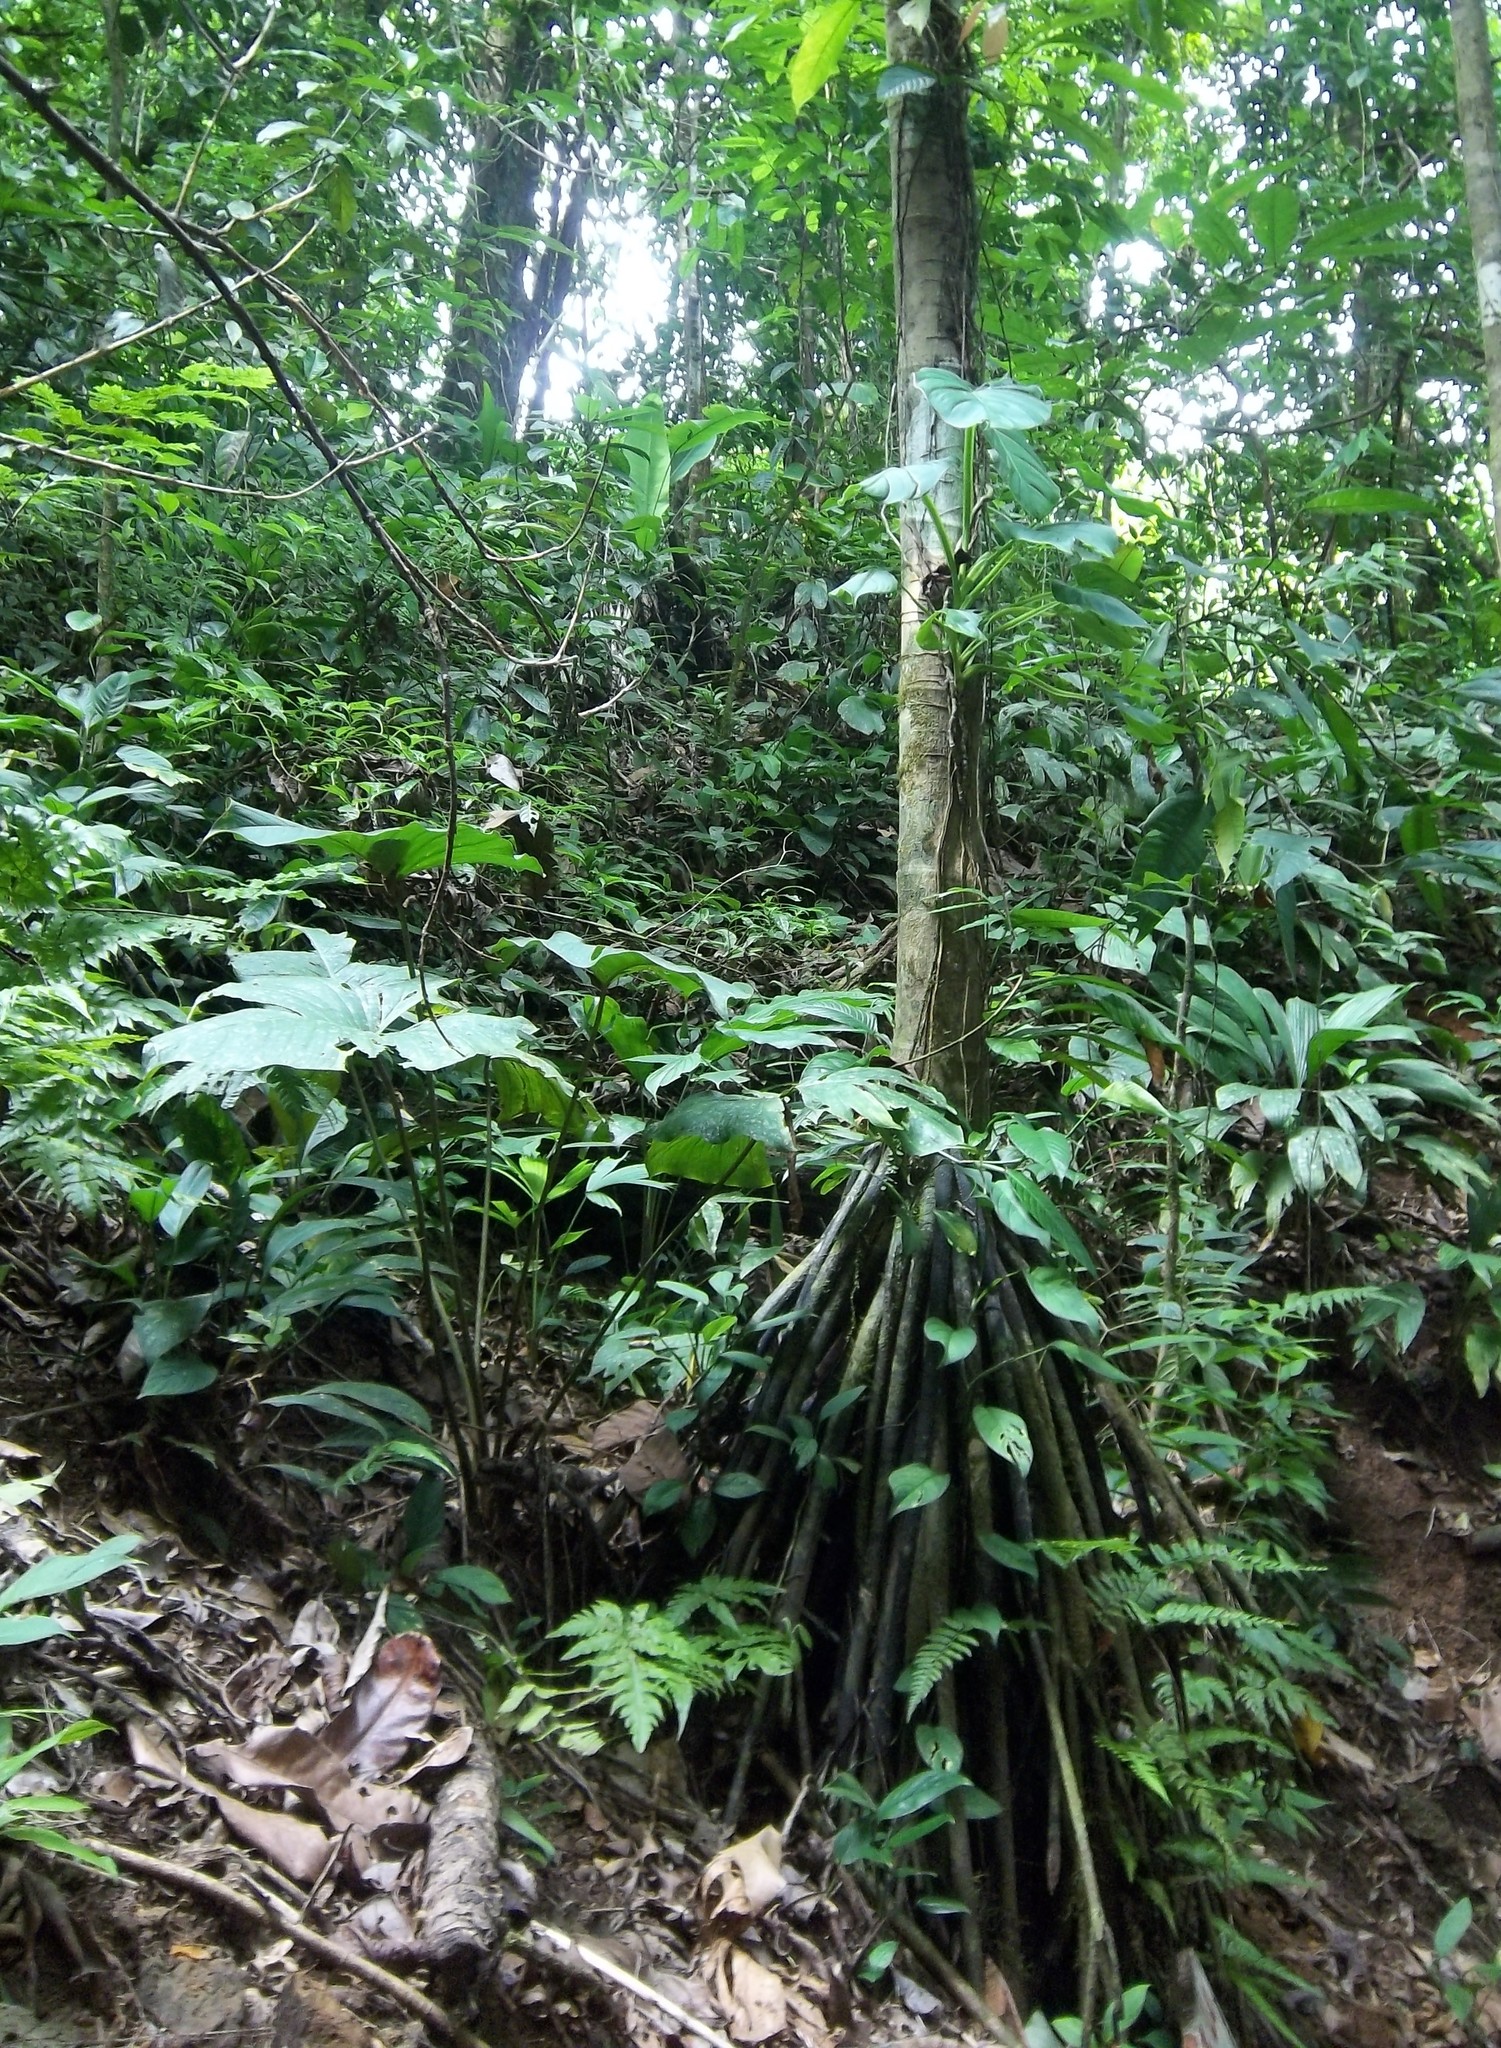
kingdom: Plantae
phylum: Tracheophyta
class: Liliopsida
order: Arecales
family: Arecaceae
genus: Iriartea
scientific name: Iriartea deltoidea
